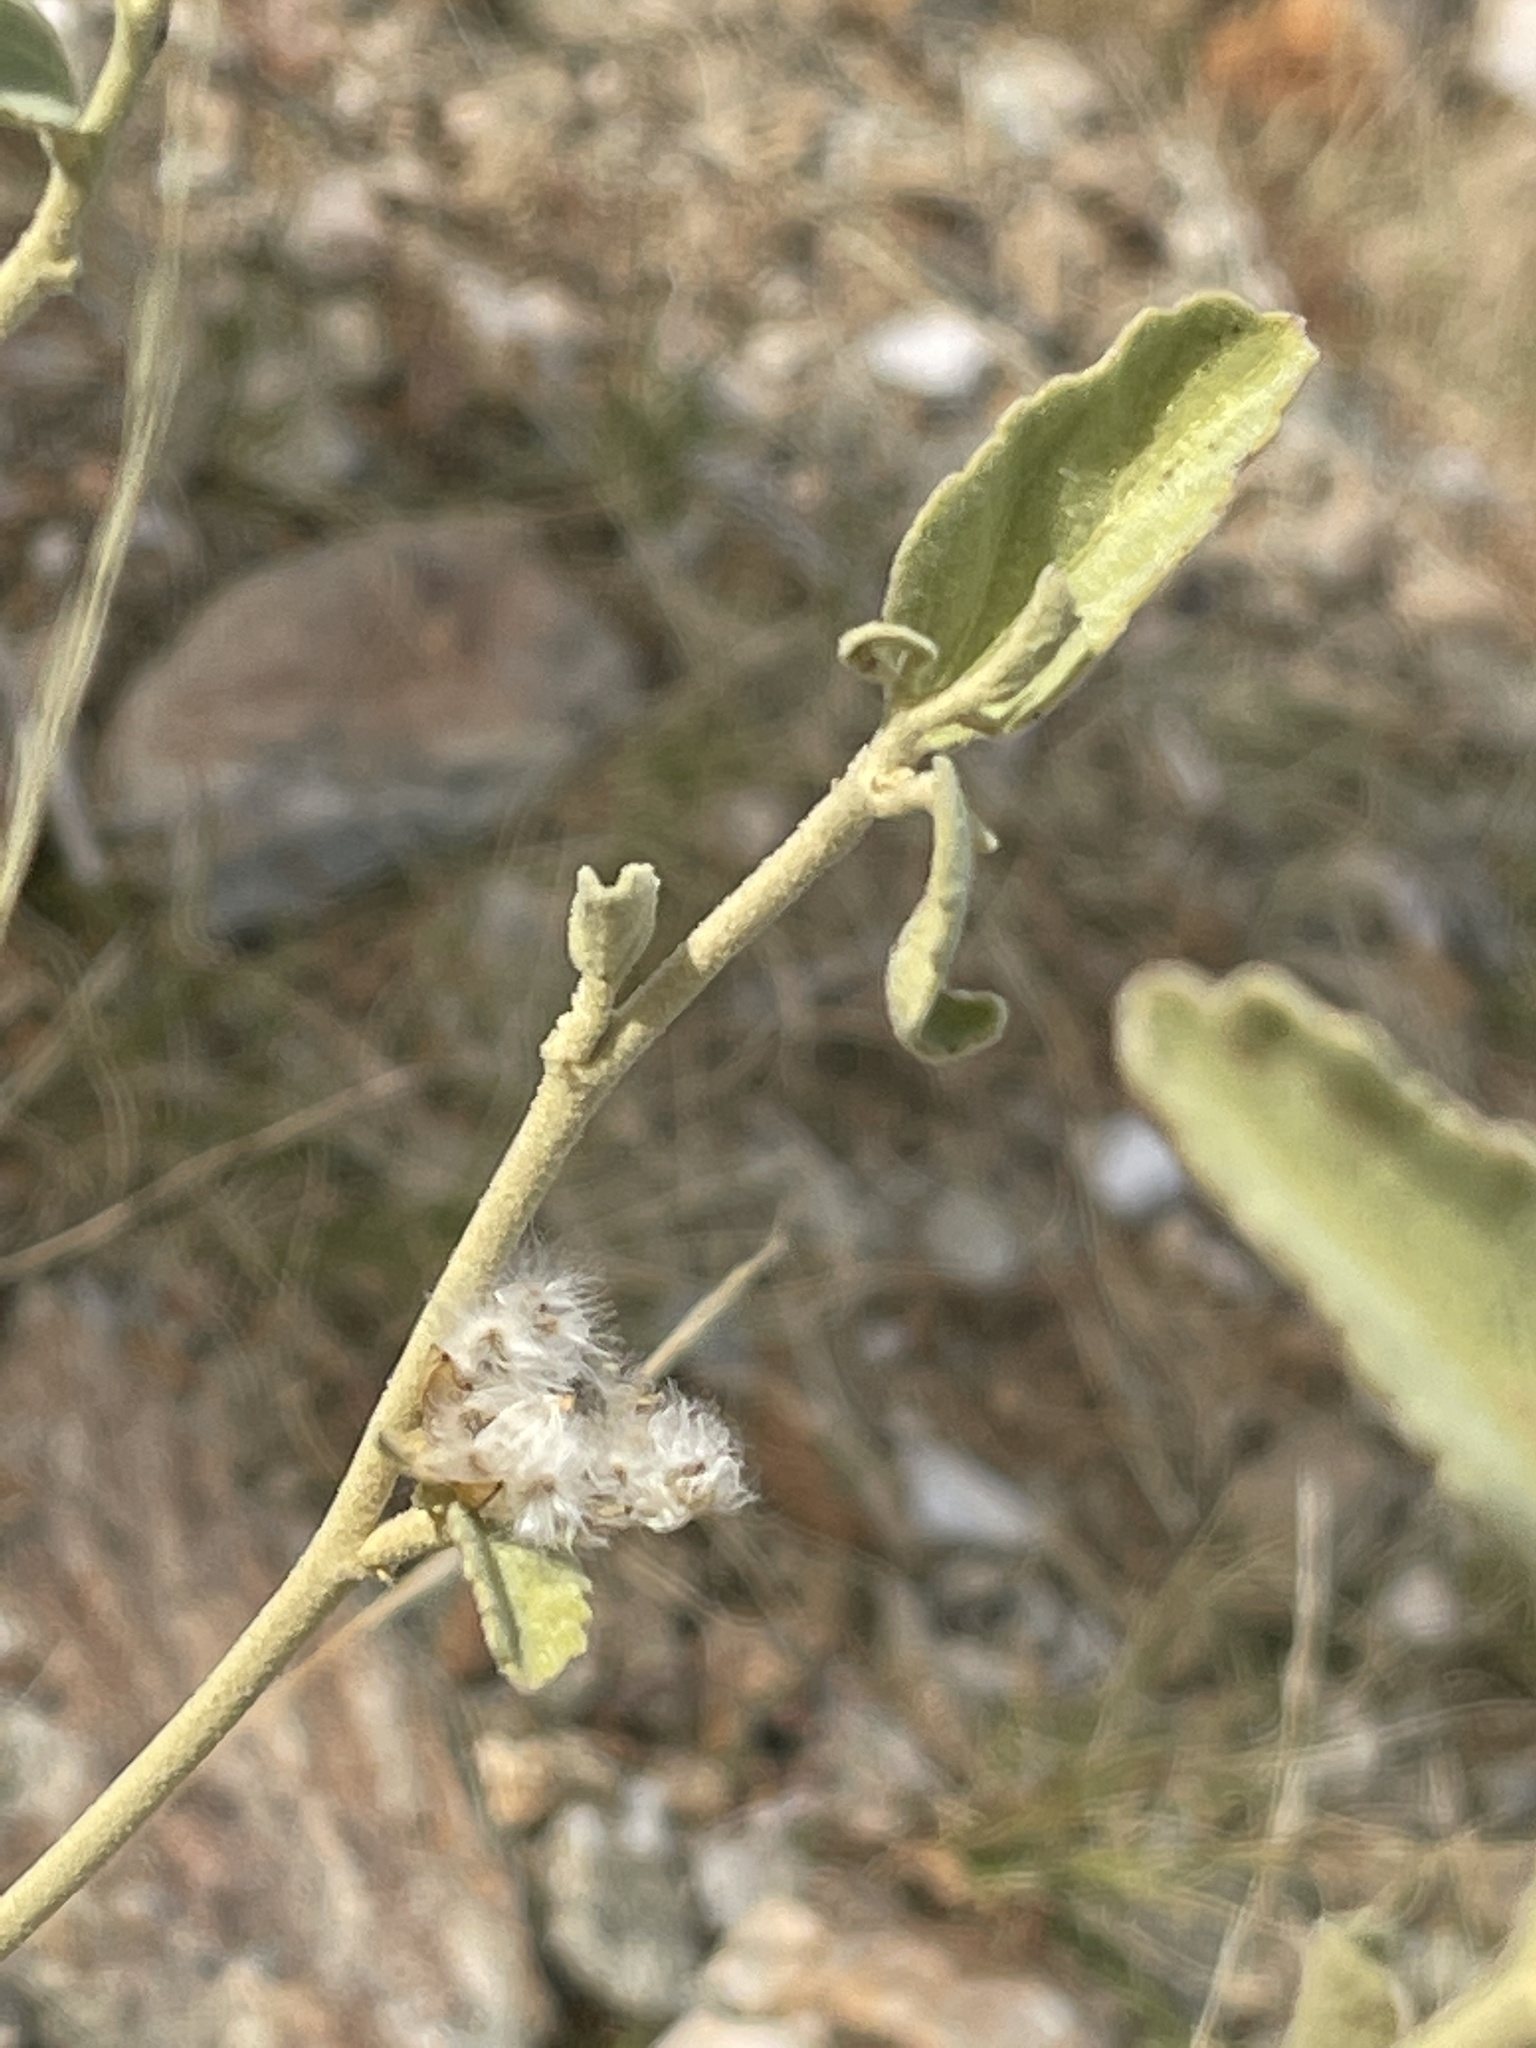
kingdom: Plantae
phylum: Tracheophyta
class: Magnoliopsida
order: Malvales
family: Malvaceae
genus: Hibiscus
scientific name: Hibiscus denudatus
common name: Paleface
